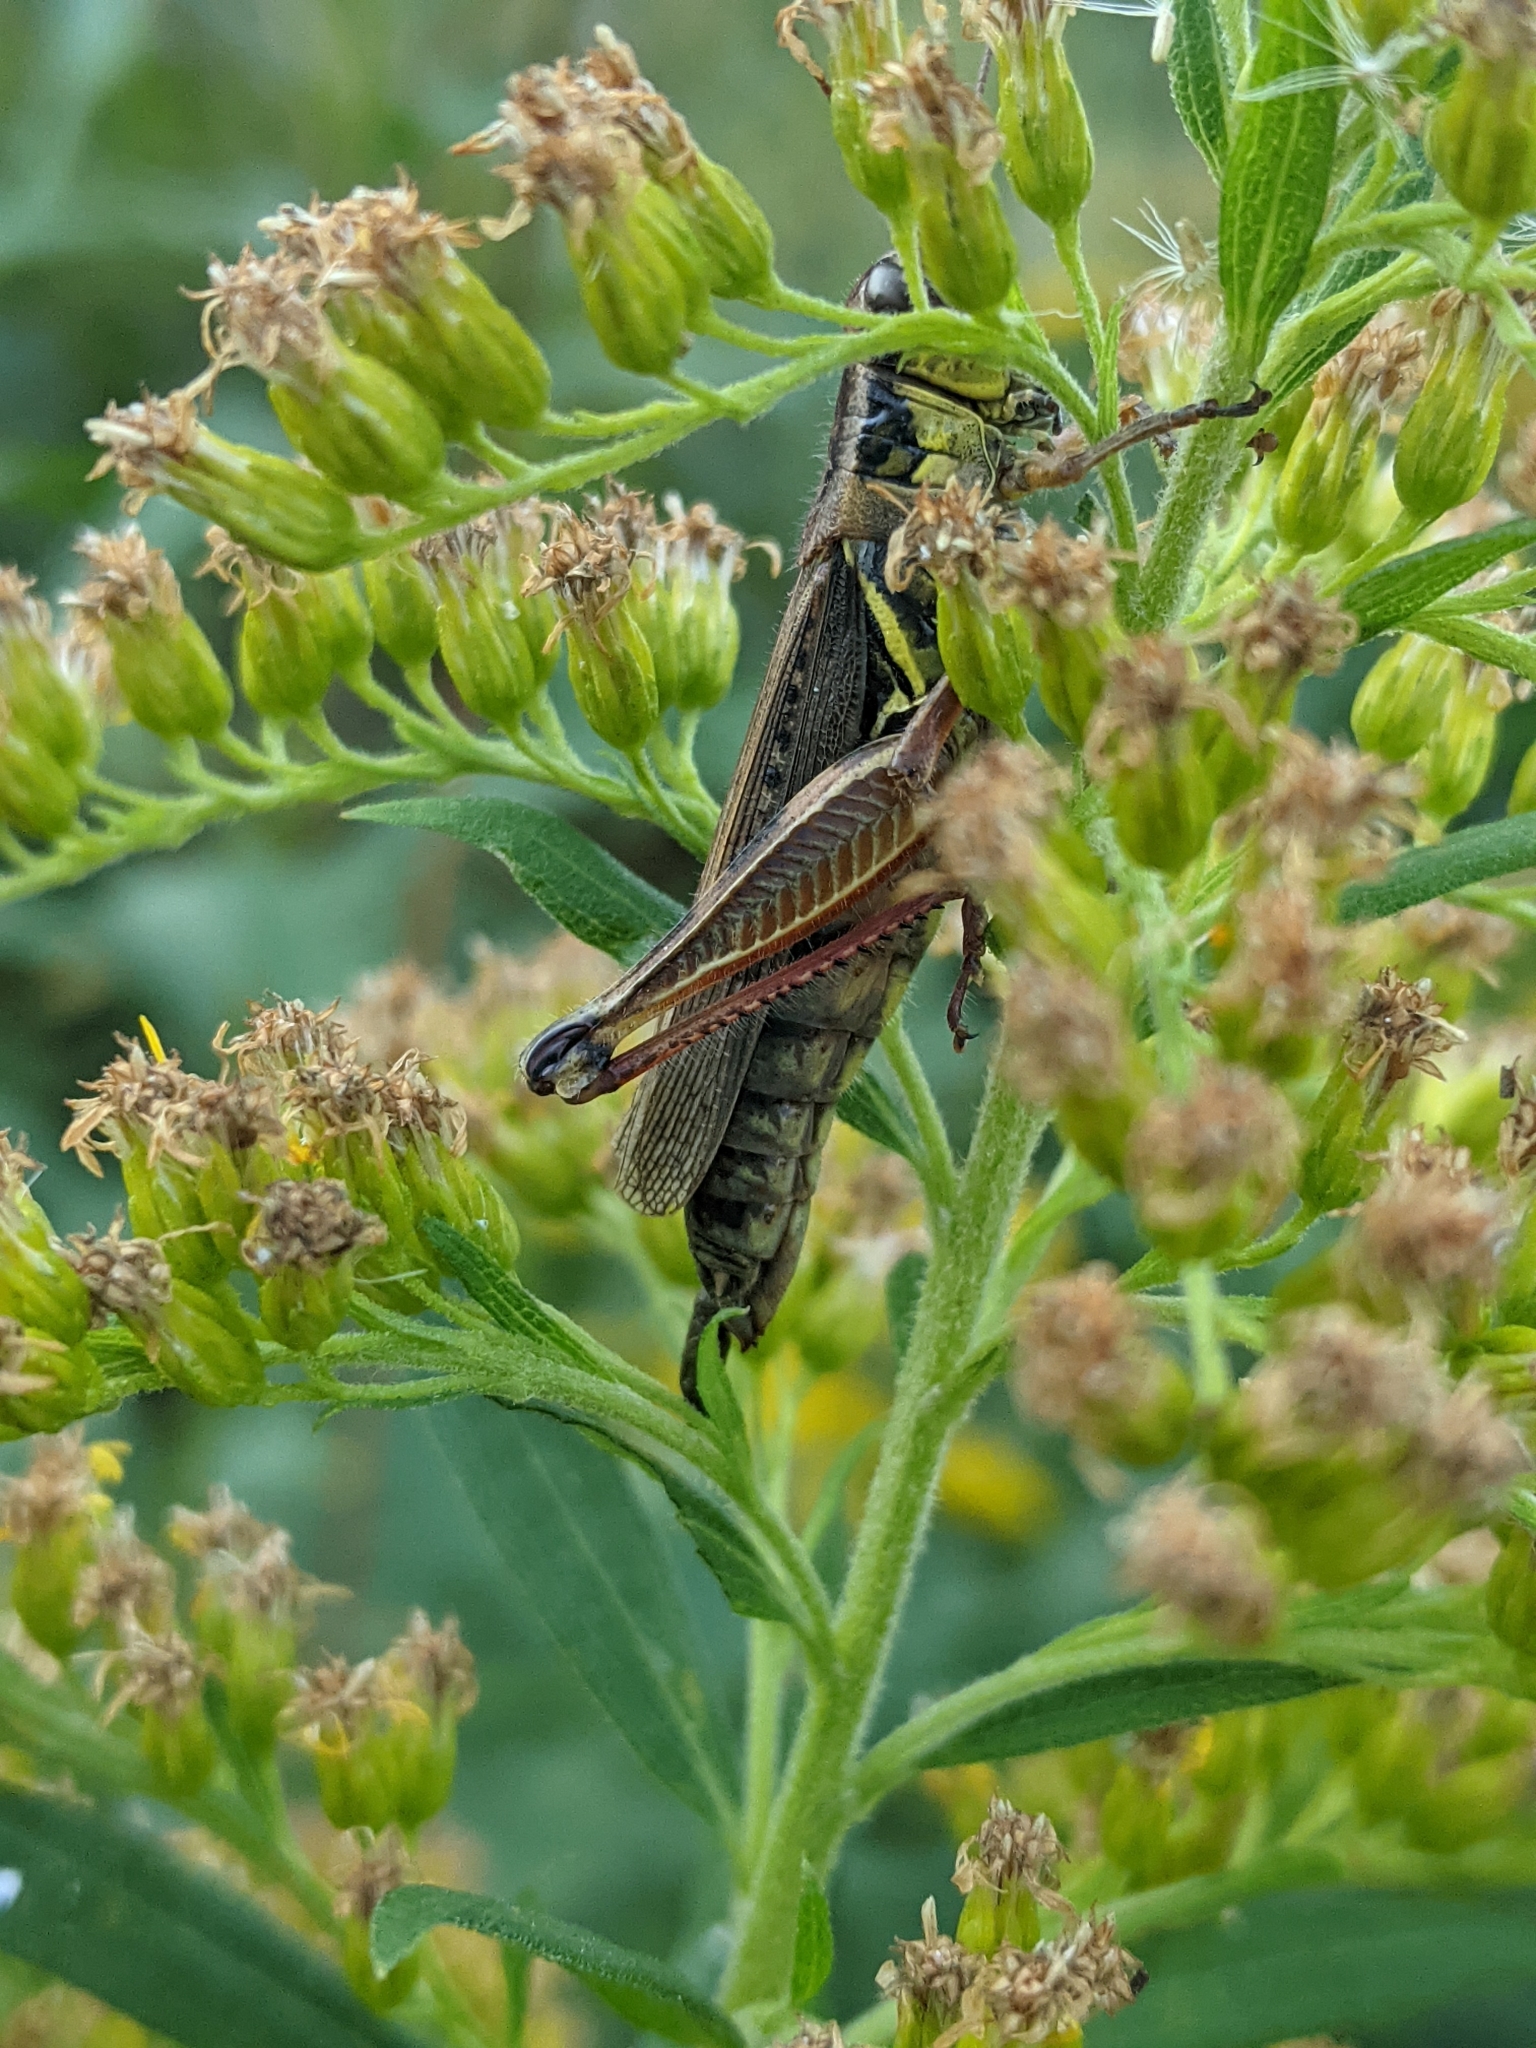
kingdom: Animalia
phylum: Arthropoda
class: Insecta
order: Orthoptera
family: Acrididae
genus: Melanoplus
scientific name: Melanoplus femurrubrum
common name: Red-legged grasshopper
